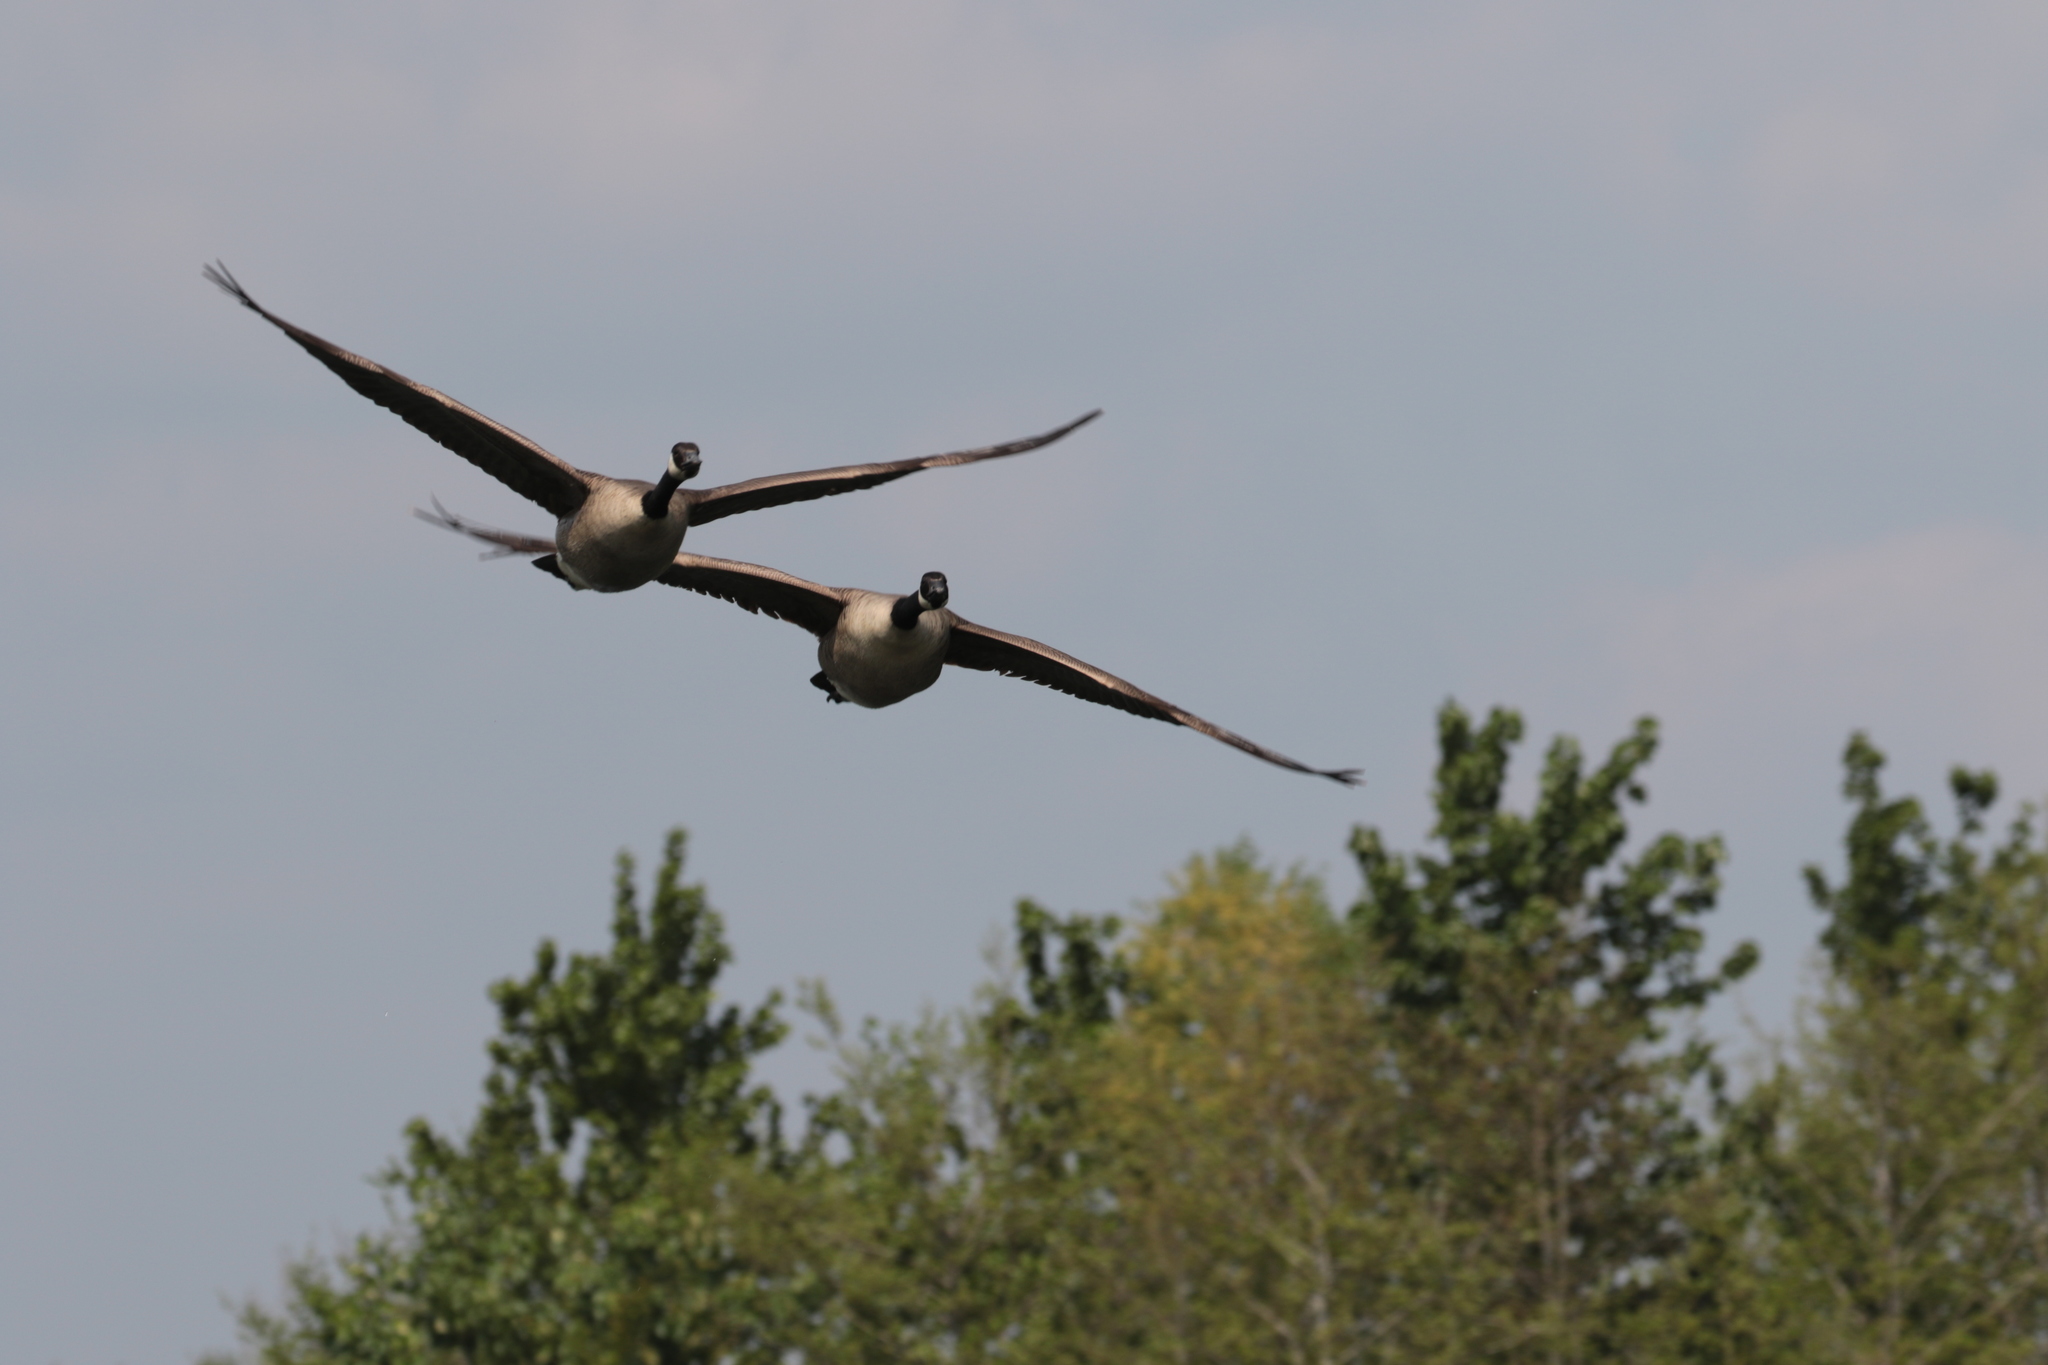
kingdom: Animalia
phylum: Chordata
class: Aves
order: Anseriformes
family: Anatidae
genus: Branta
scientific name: Branta canadensis
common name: Canada goose
